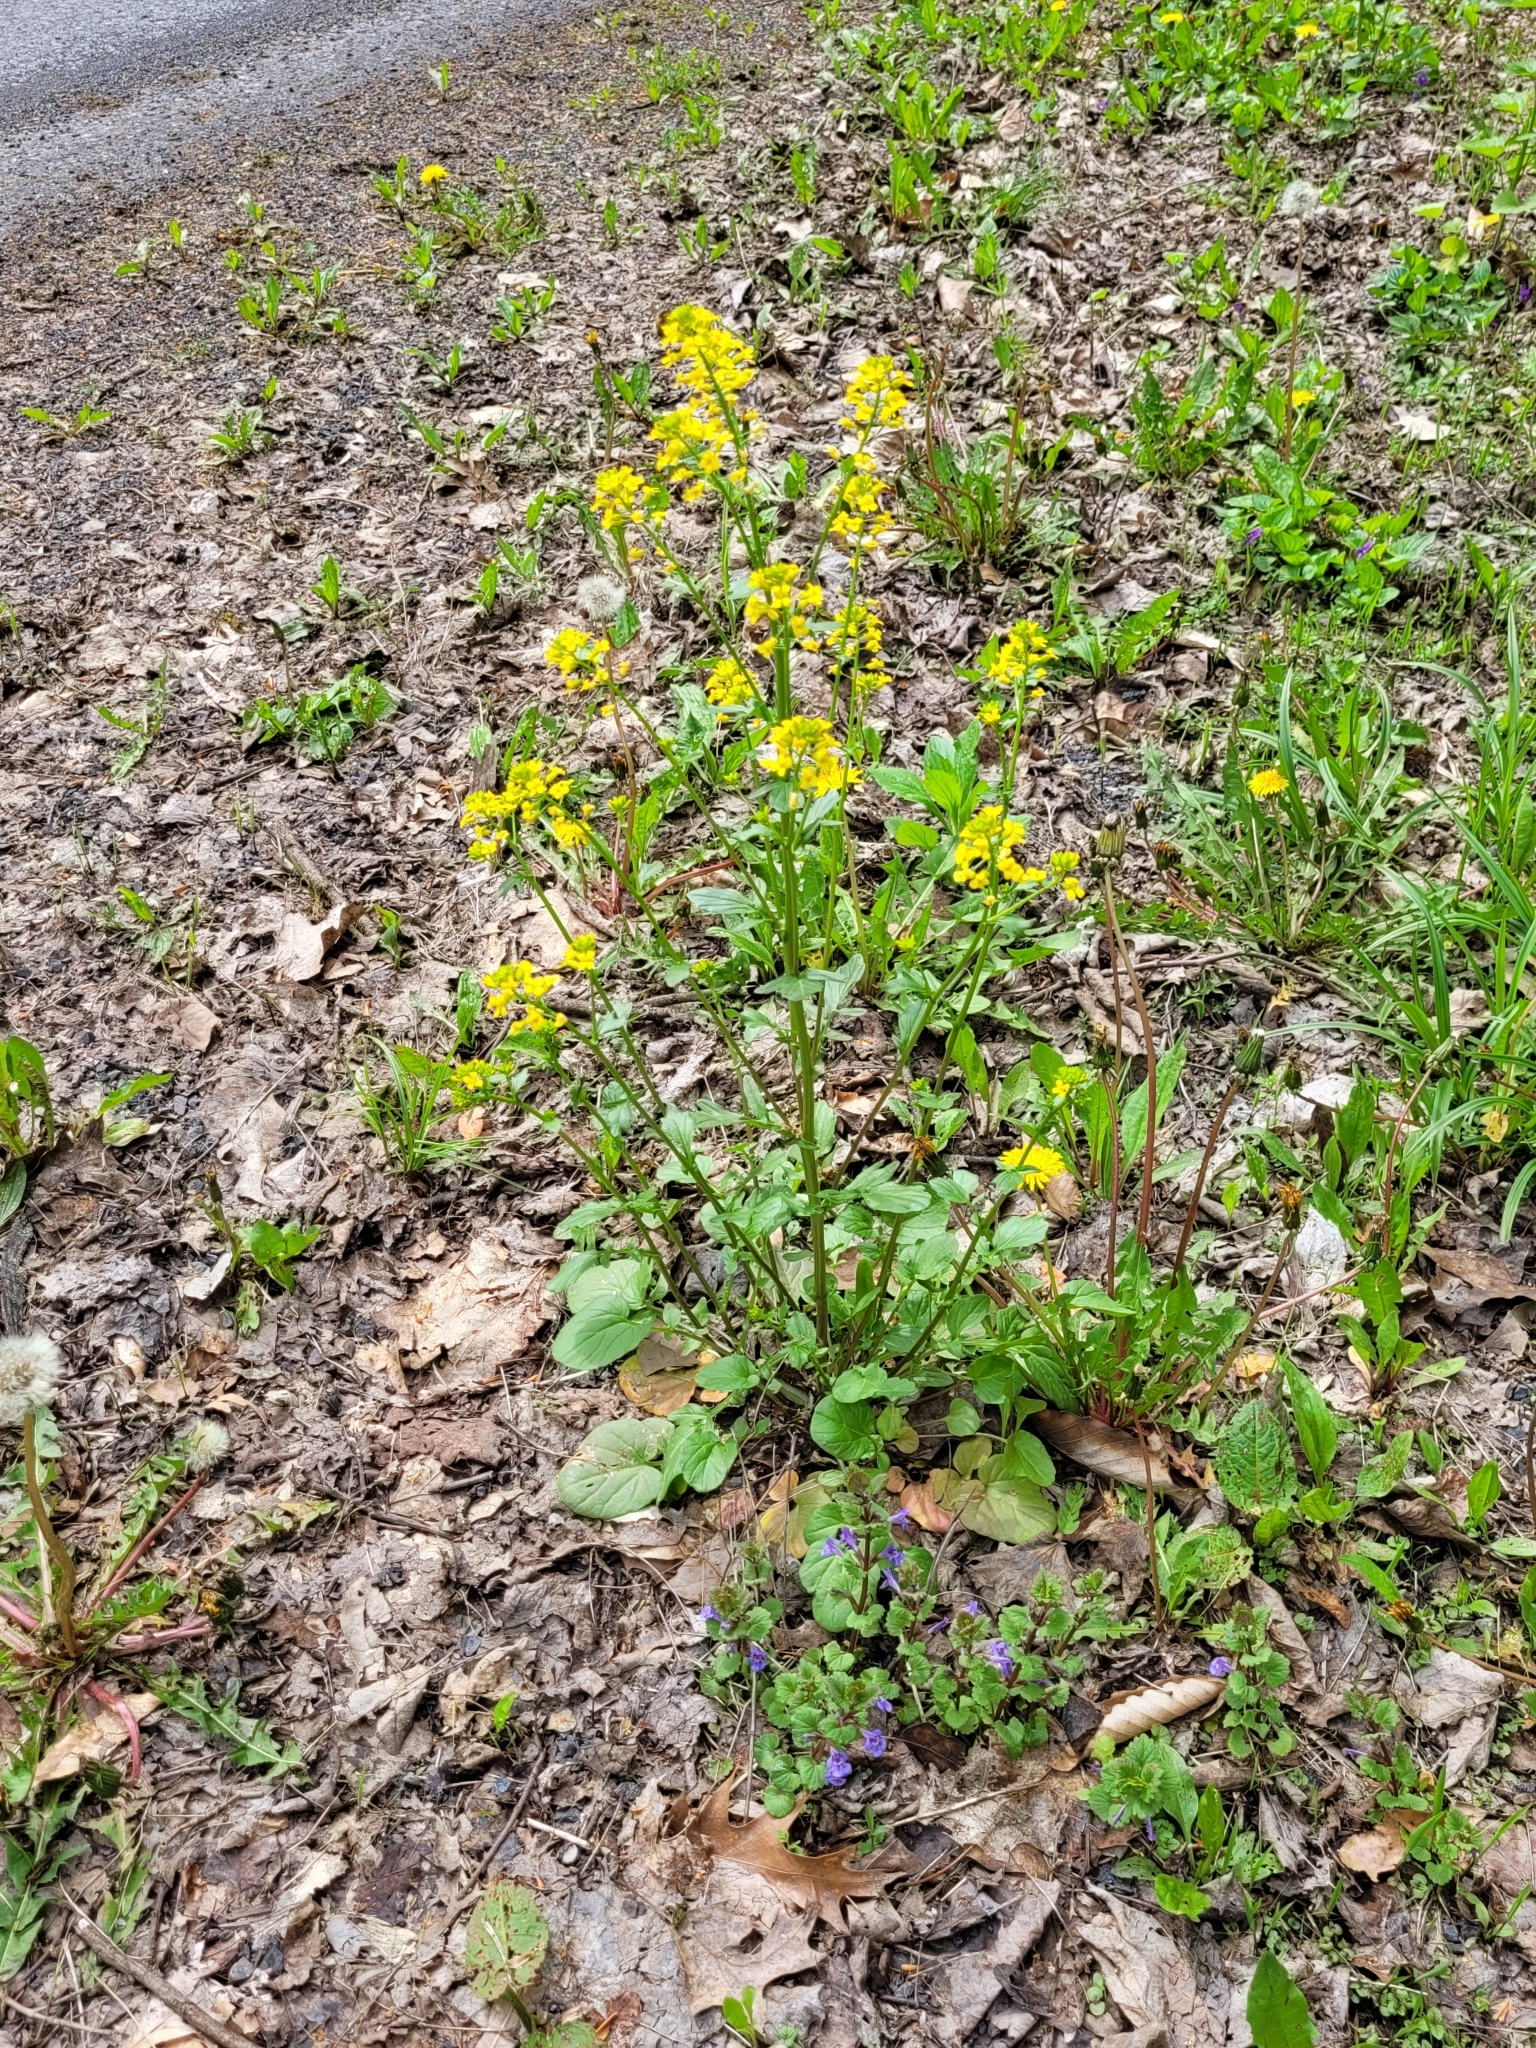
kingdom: Plantae
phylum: Tracheophyta
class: Magnoliopsida
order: Brassicales
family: Brassicaceae
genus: Barbarea
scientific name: Barbarea vulgaris
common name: Cressy-greens
